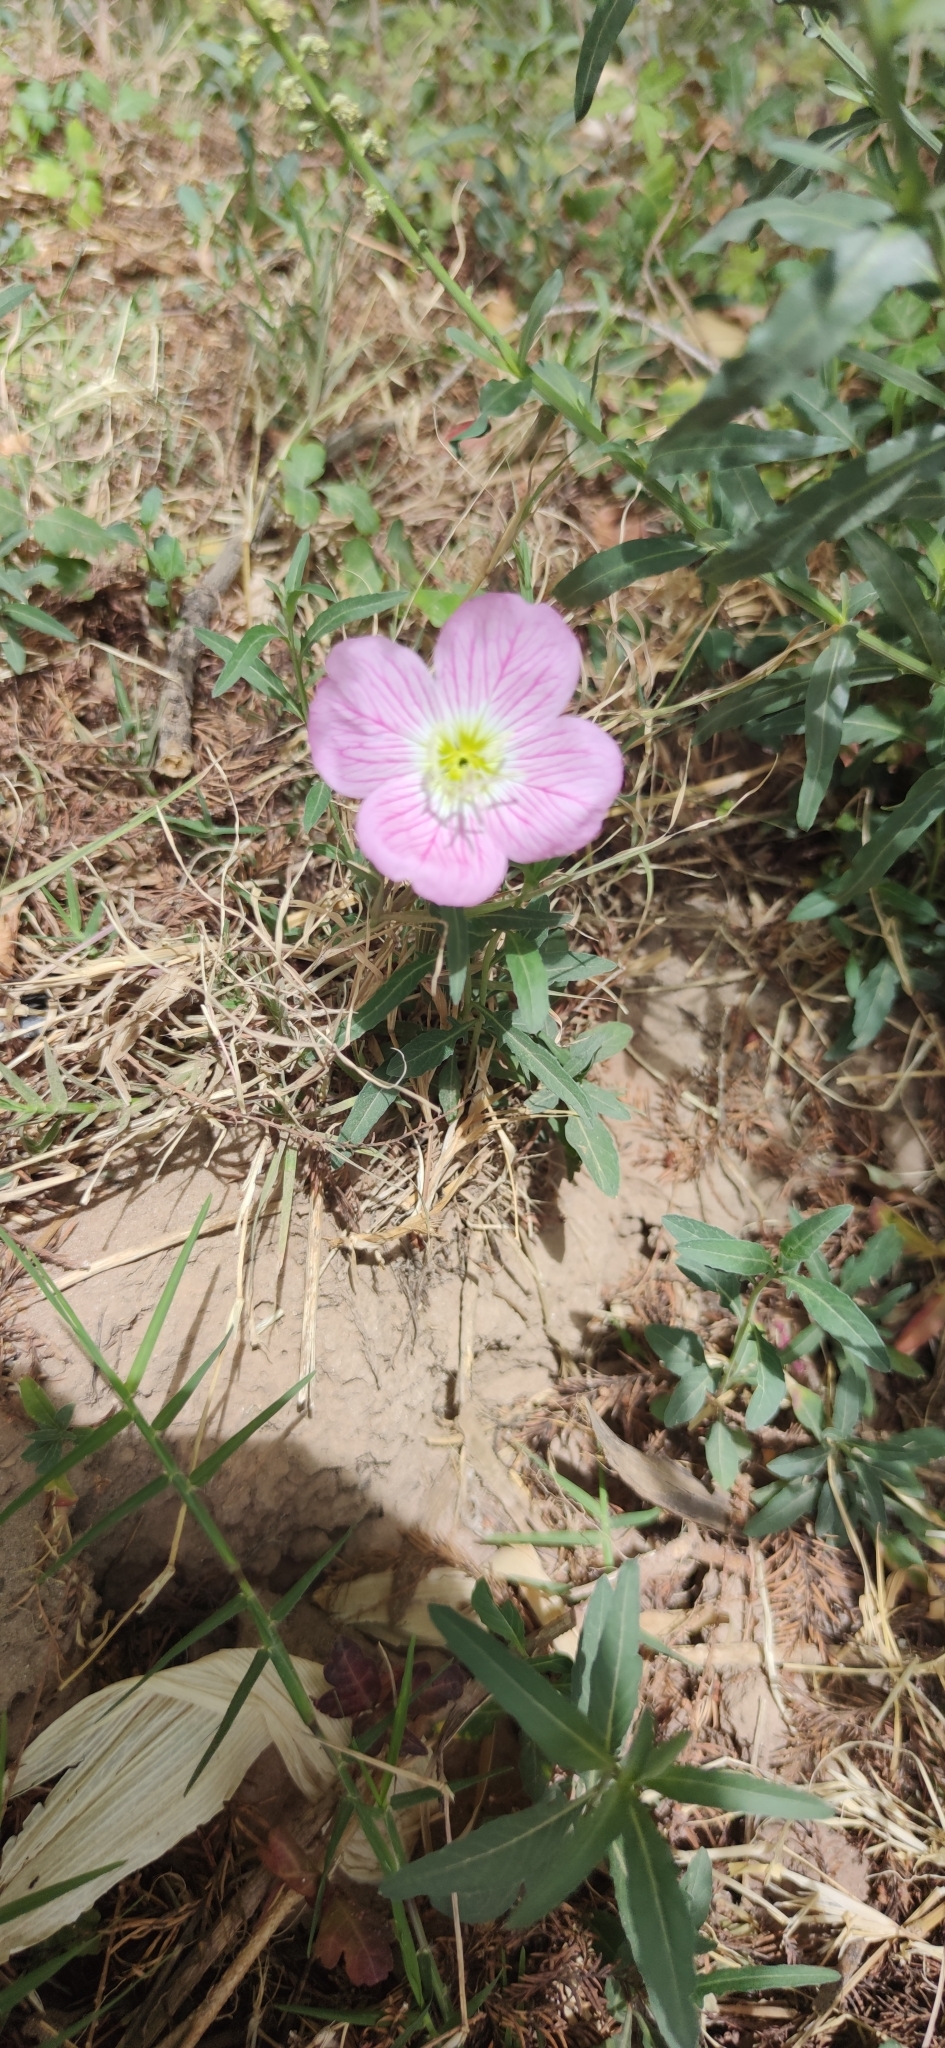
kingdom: Plantae
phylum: Tracheophyta
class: Magnoliopsida
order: Myrtales
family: Onagraceae
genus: Oenothera
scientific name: Oenothera speciosa
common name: White evening-primrose
